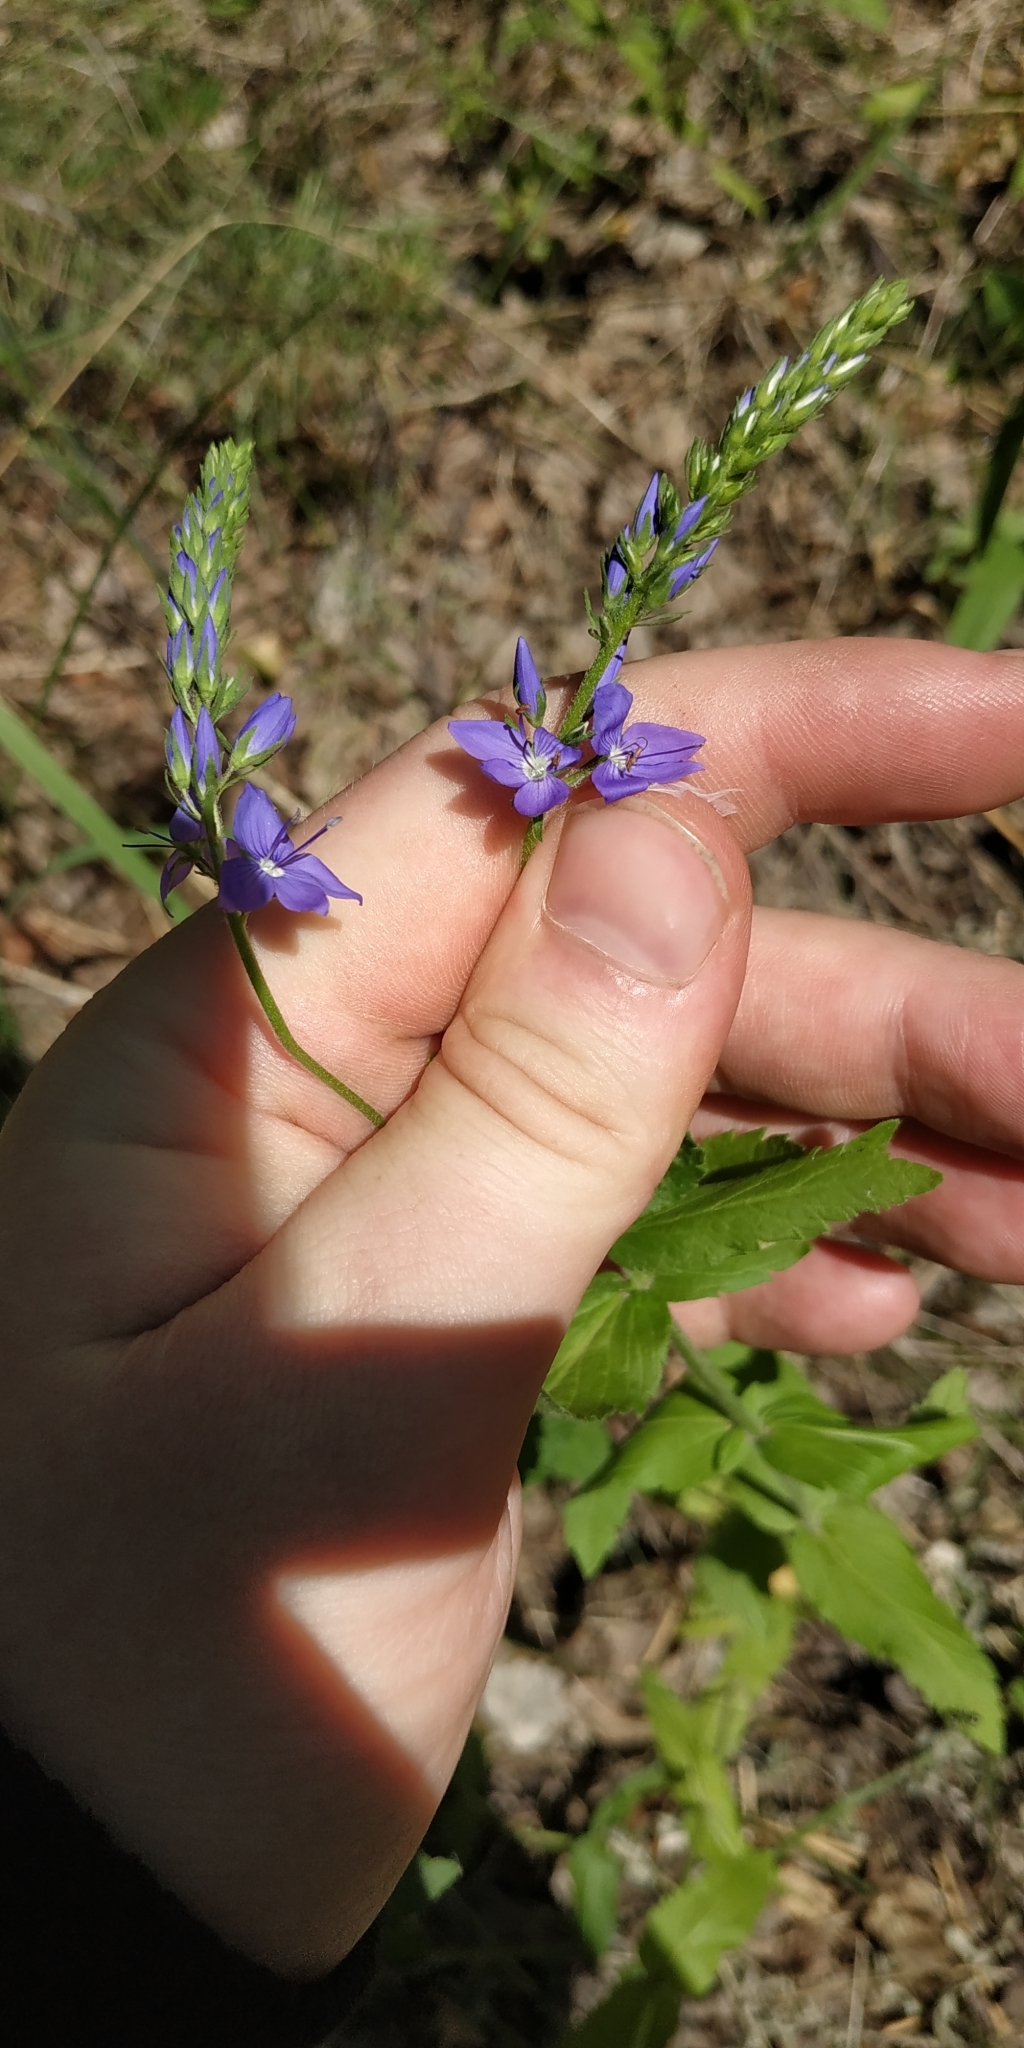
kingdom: Plantae
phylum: Tracheophyta
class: Magnoliopsida
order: Lamiales
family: Plantaginaceae
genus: Veronica
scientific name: Veronica teucrium
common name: Large speedwell
